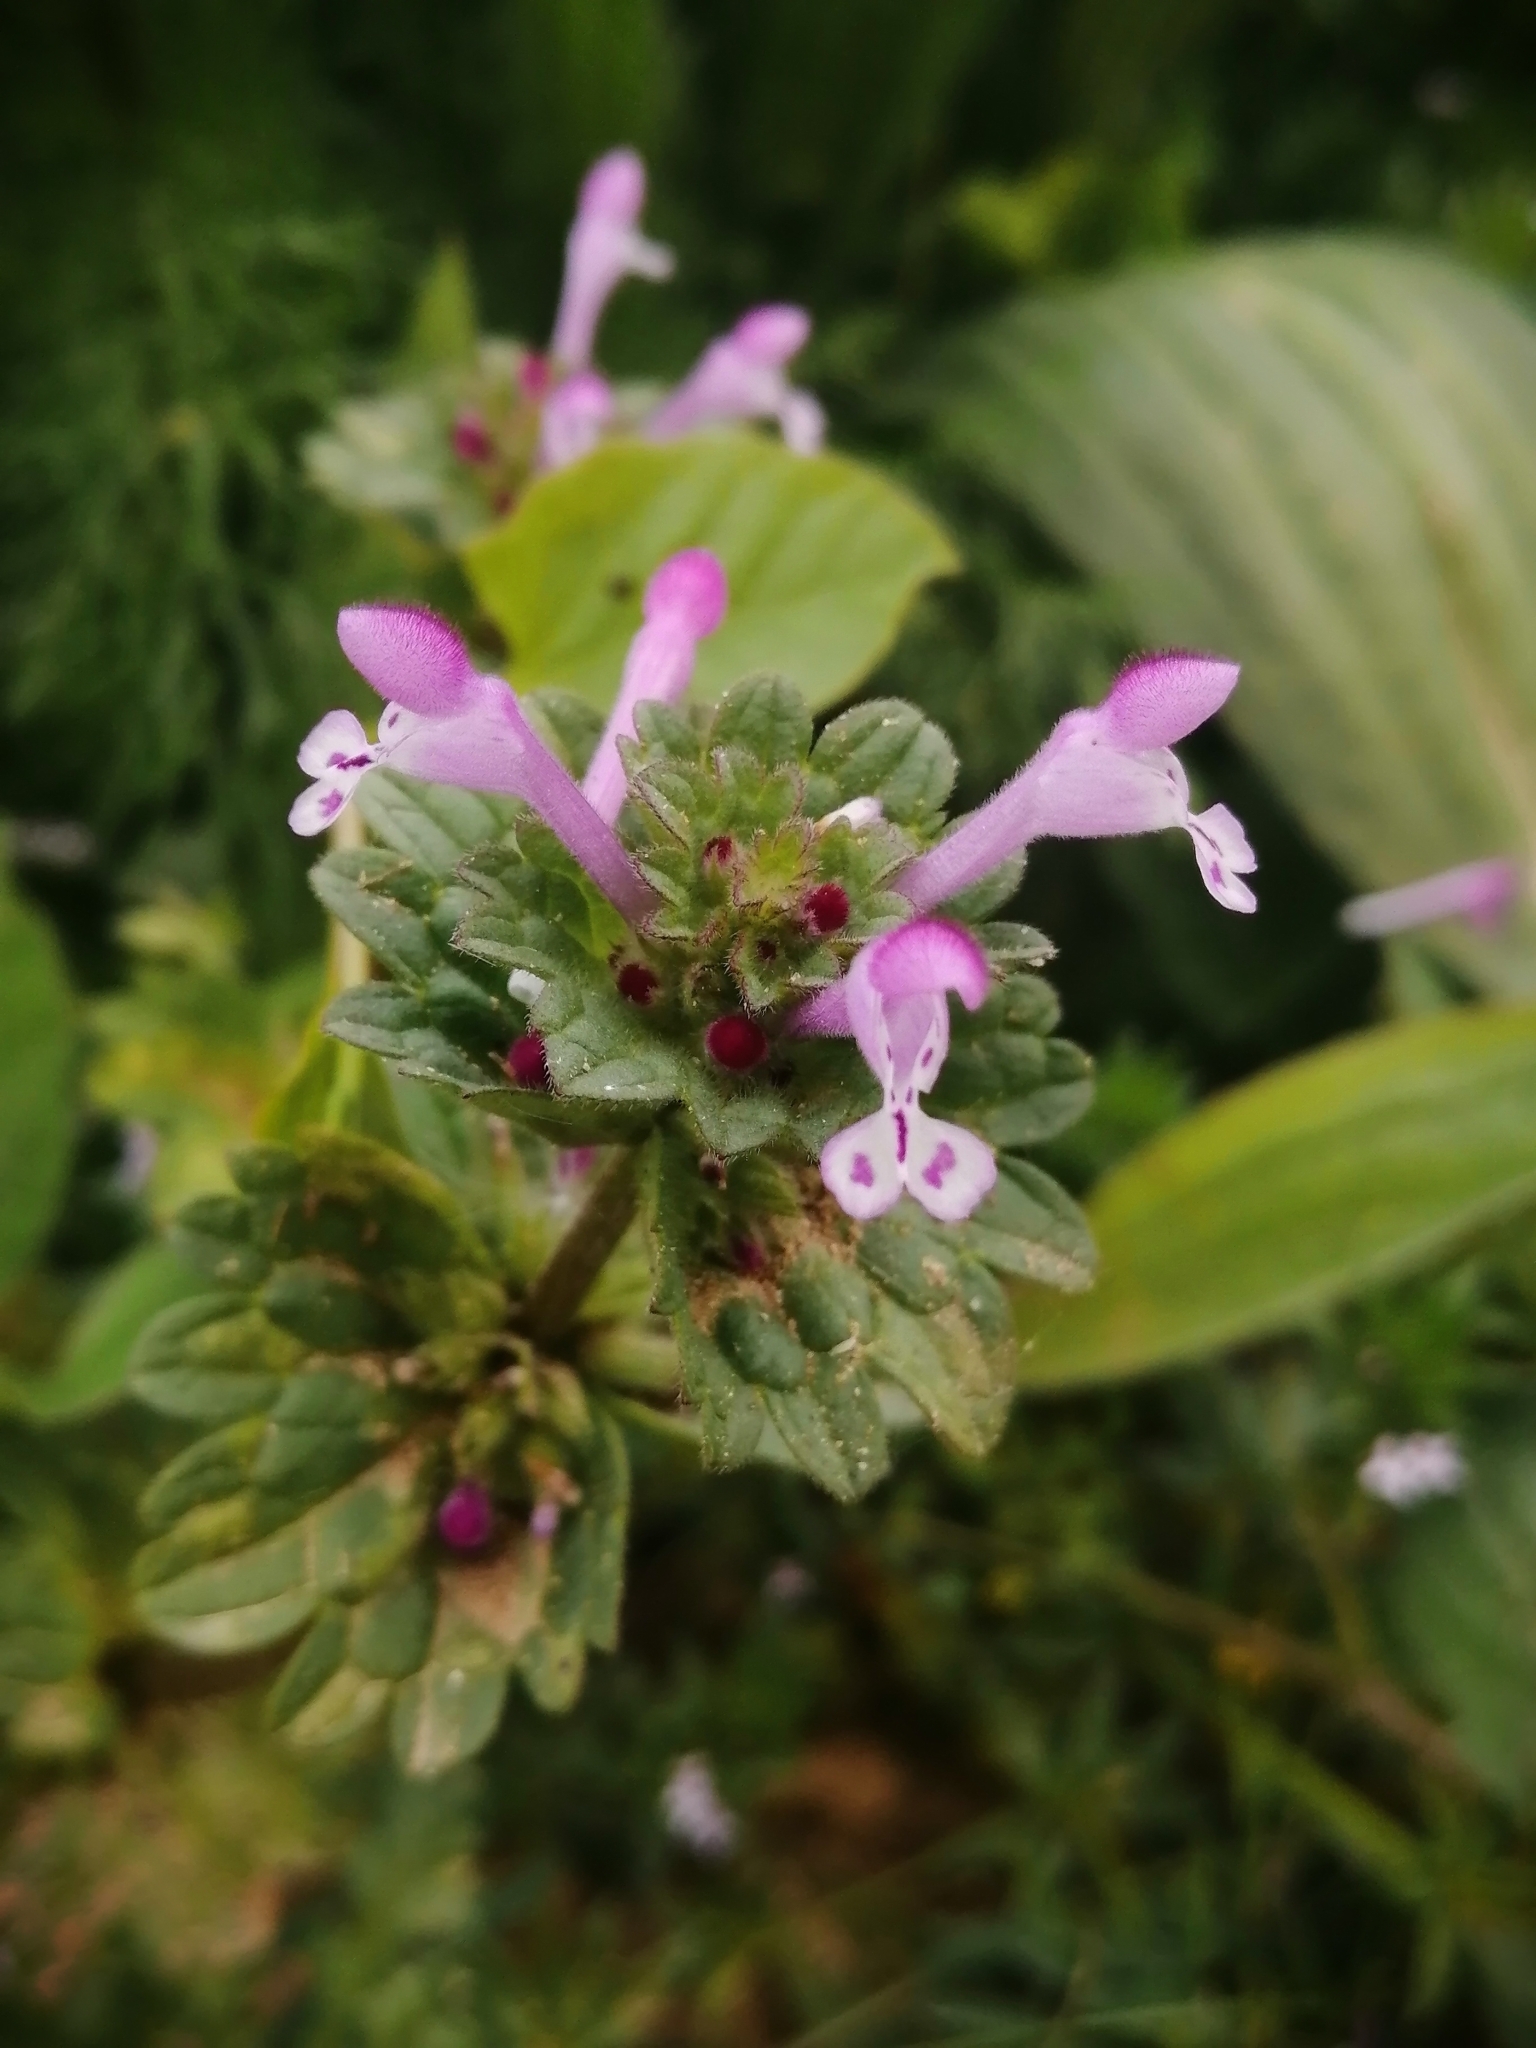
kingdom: Plantae
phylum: Tracheophyta
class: Magnoliopsida
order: Lamiales
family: Lamiaceae
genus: Lamium
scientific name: Lamium amplexicaule
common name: Henbit dead-nettle
